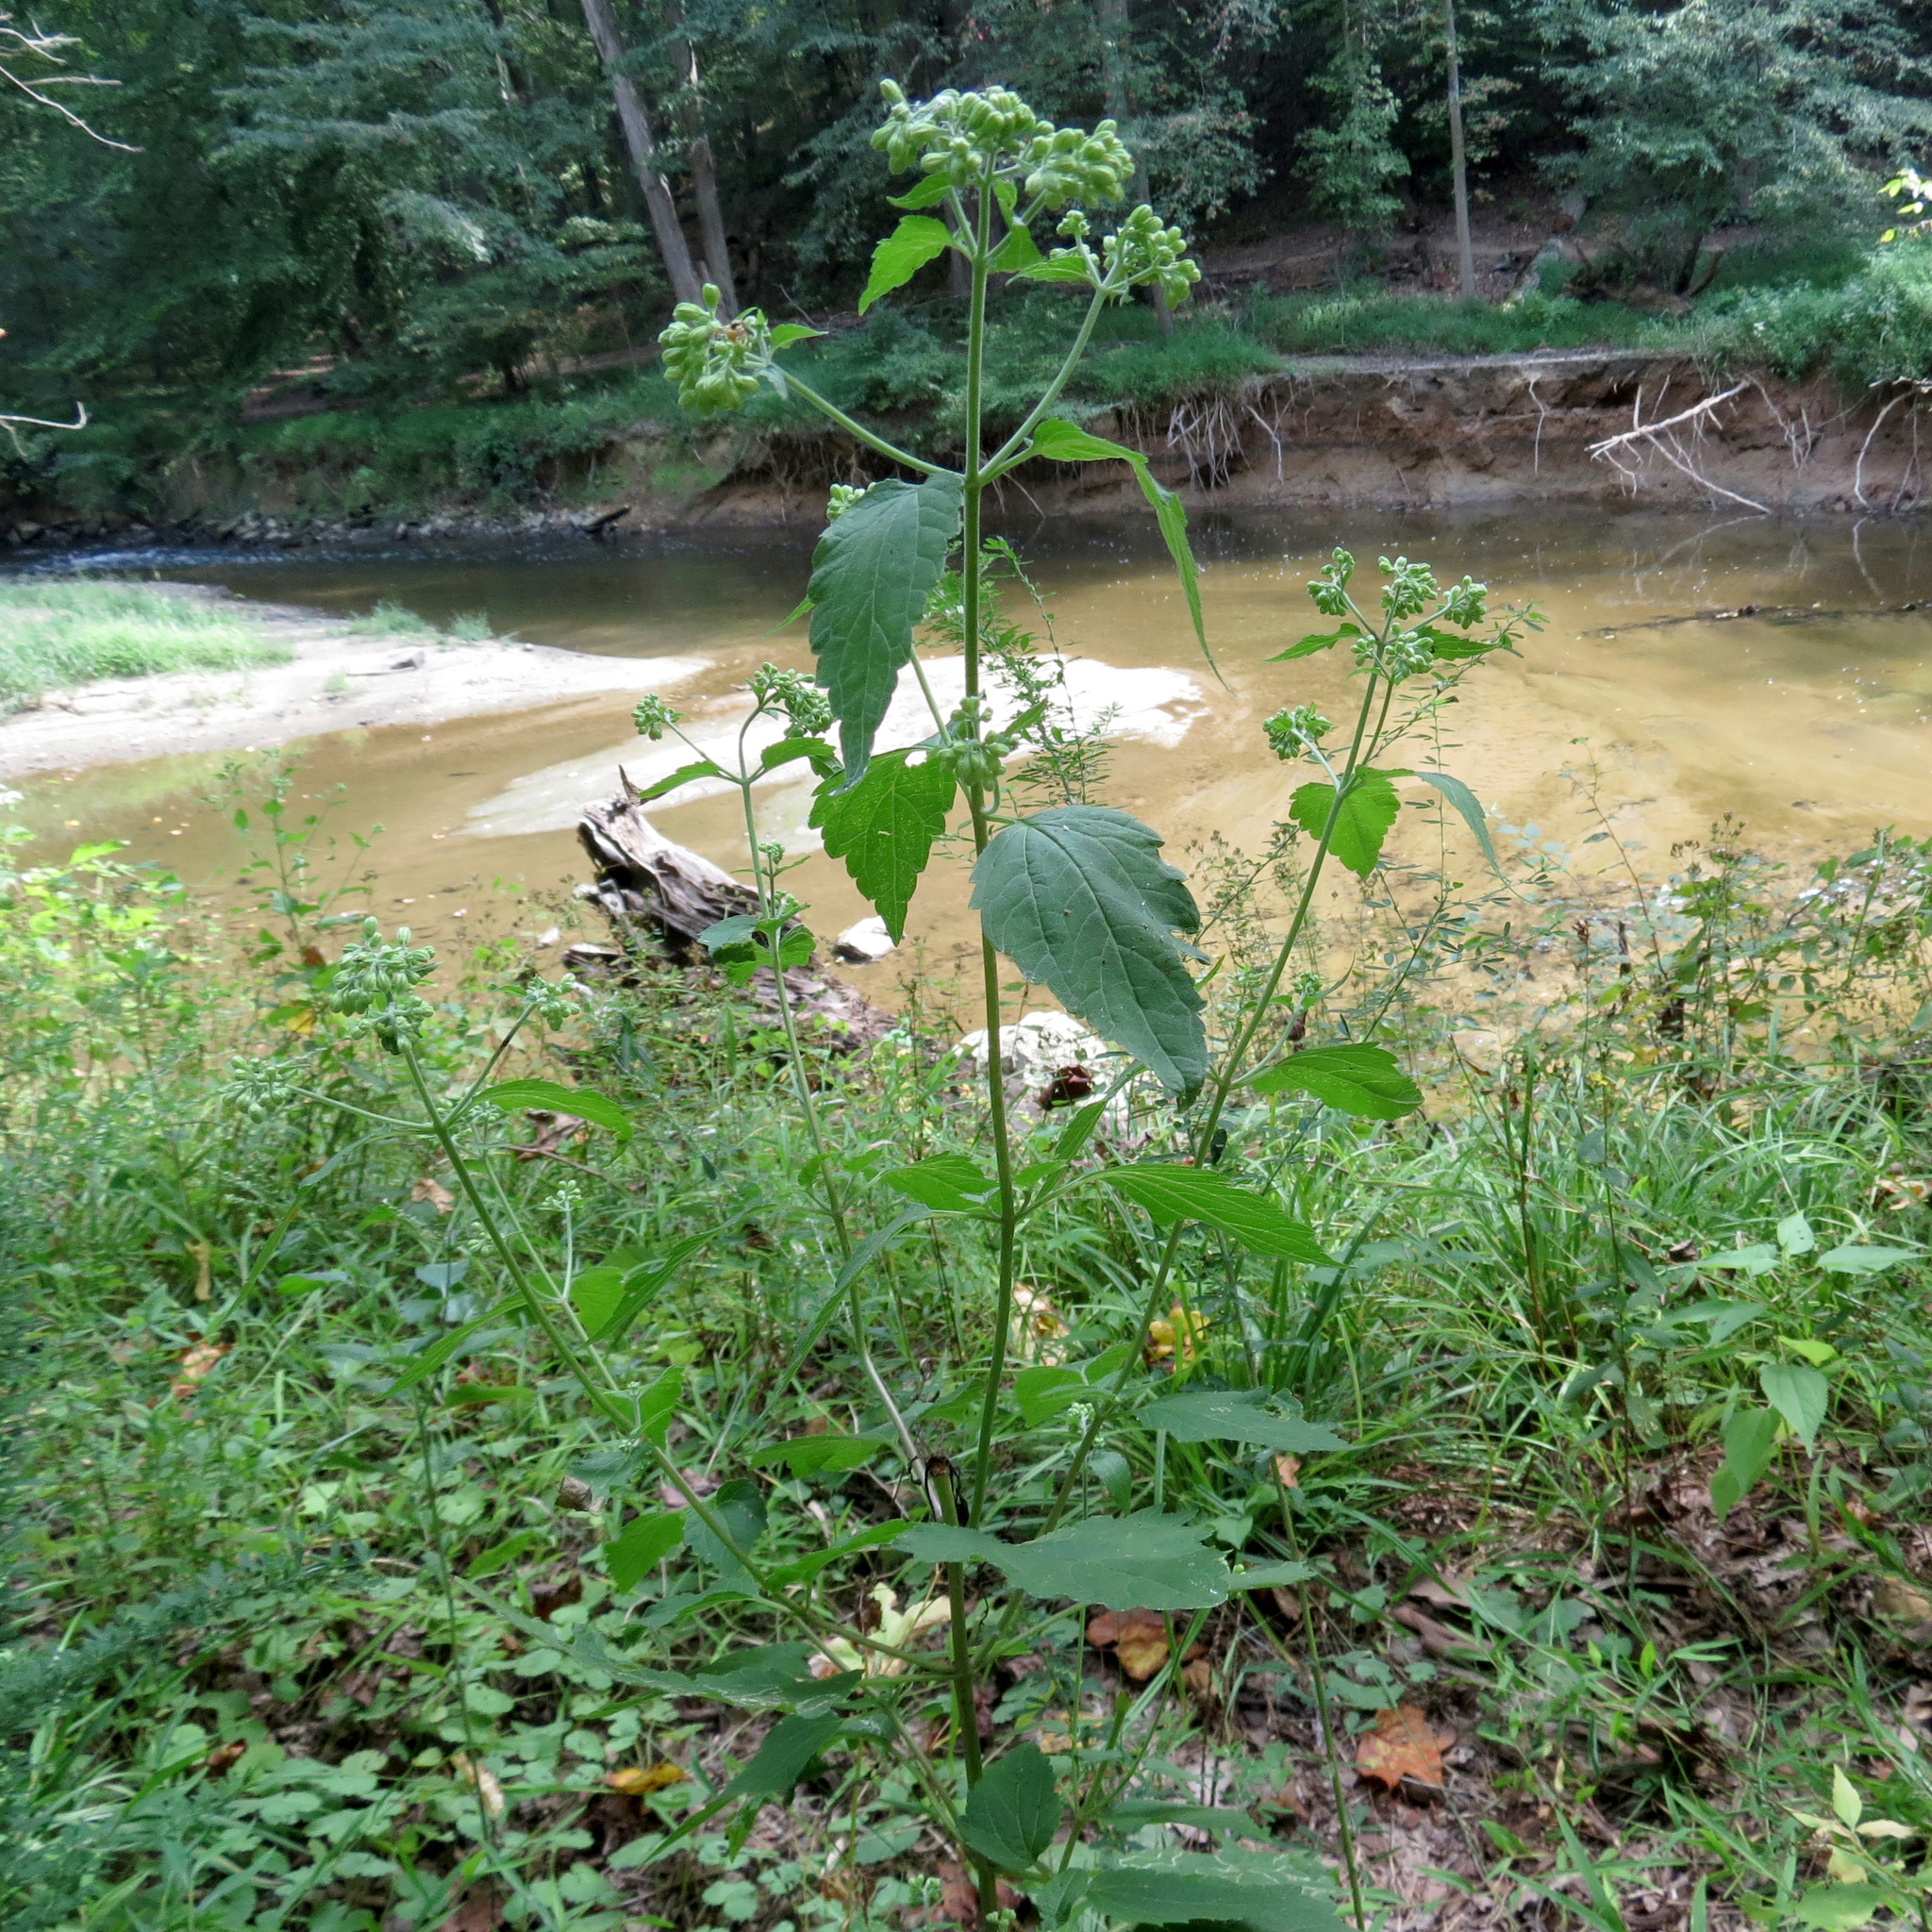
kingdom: Plantae
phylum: Tracheophyta
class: Magnoliopsida
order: Asterales
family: Asteraceae
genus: Ageratina
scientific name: Ageratina altissima
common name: White snakeroot
